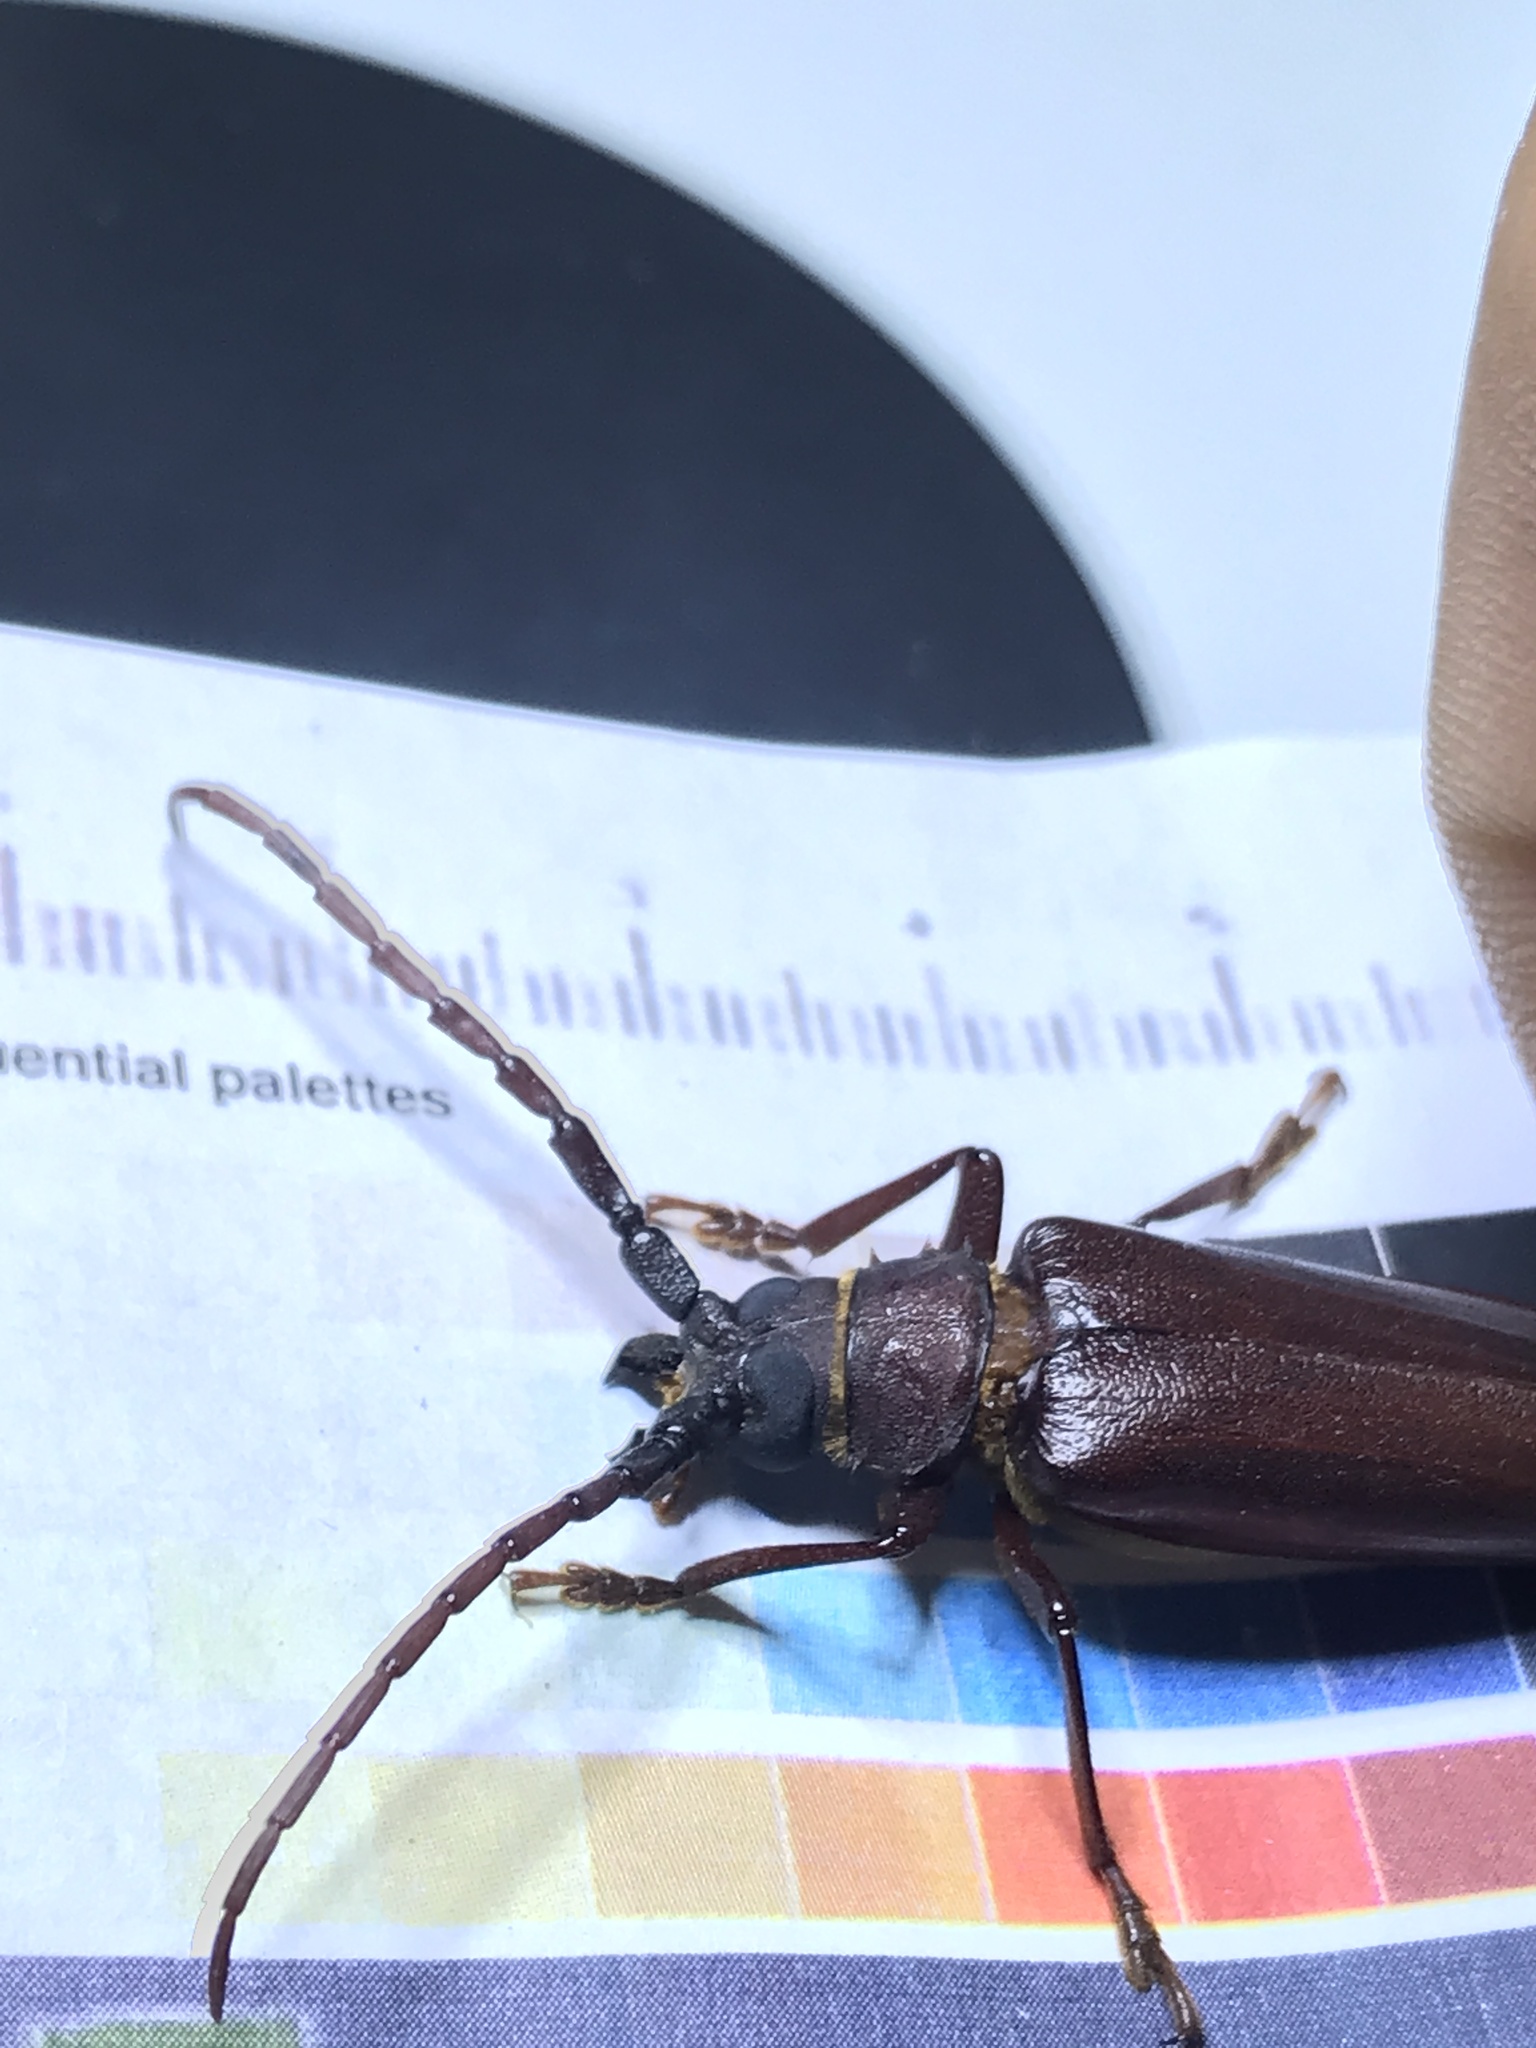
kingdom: Animalia
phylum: Arthropoda
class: Insecta
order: Coleoptera
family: Cerambycidae
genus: Orthosoma
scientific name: Orthosoma brunneum
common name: Brown prionid beetle
